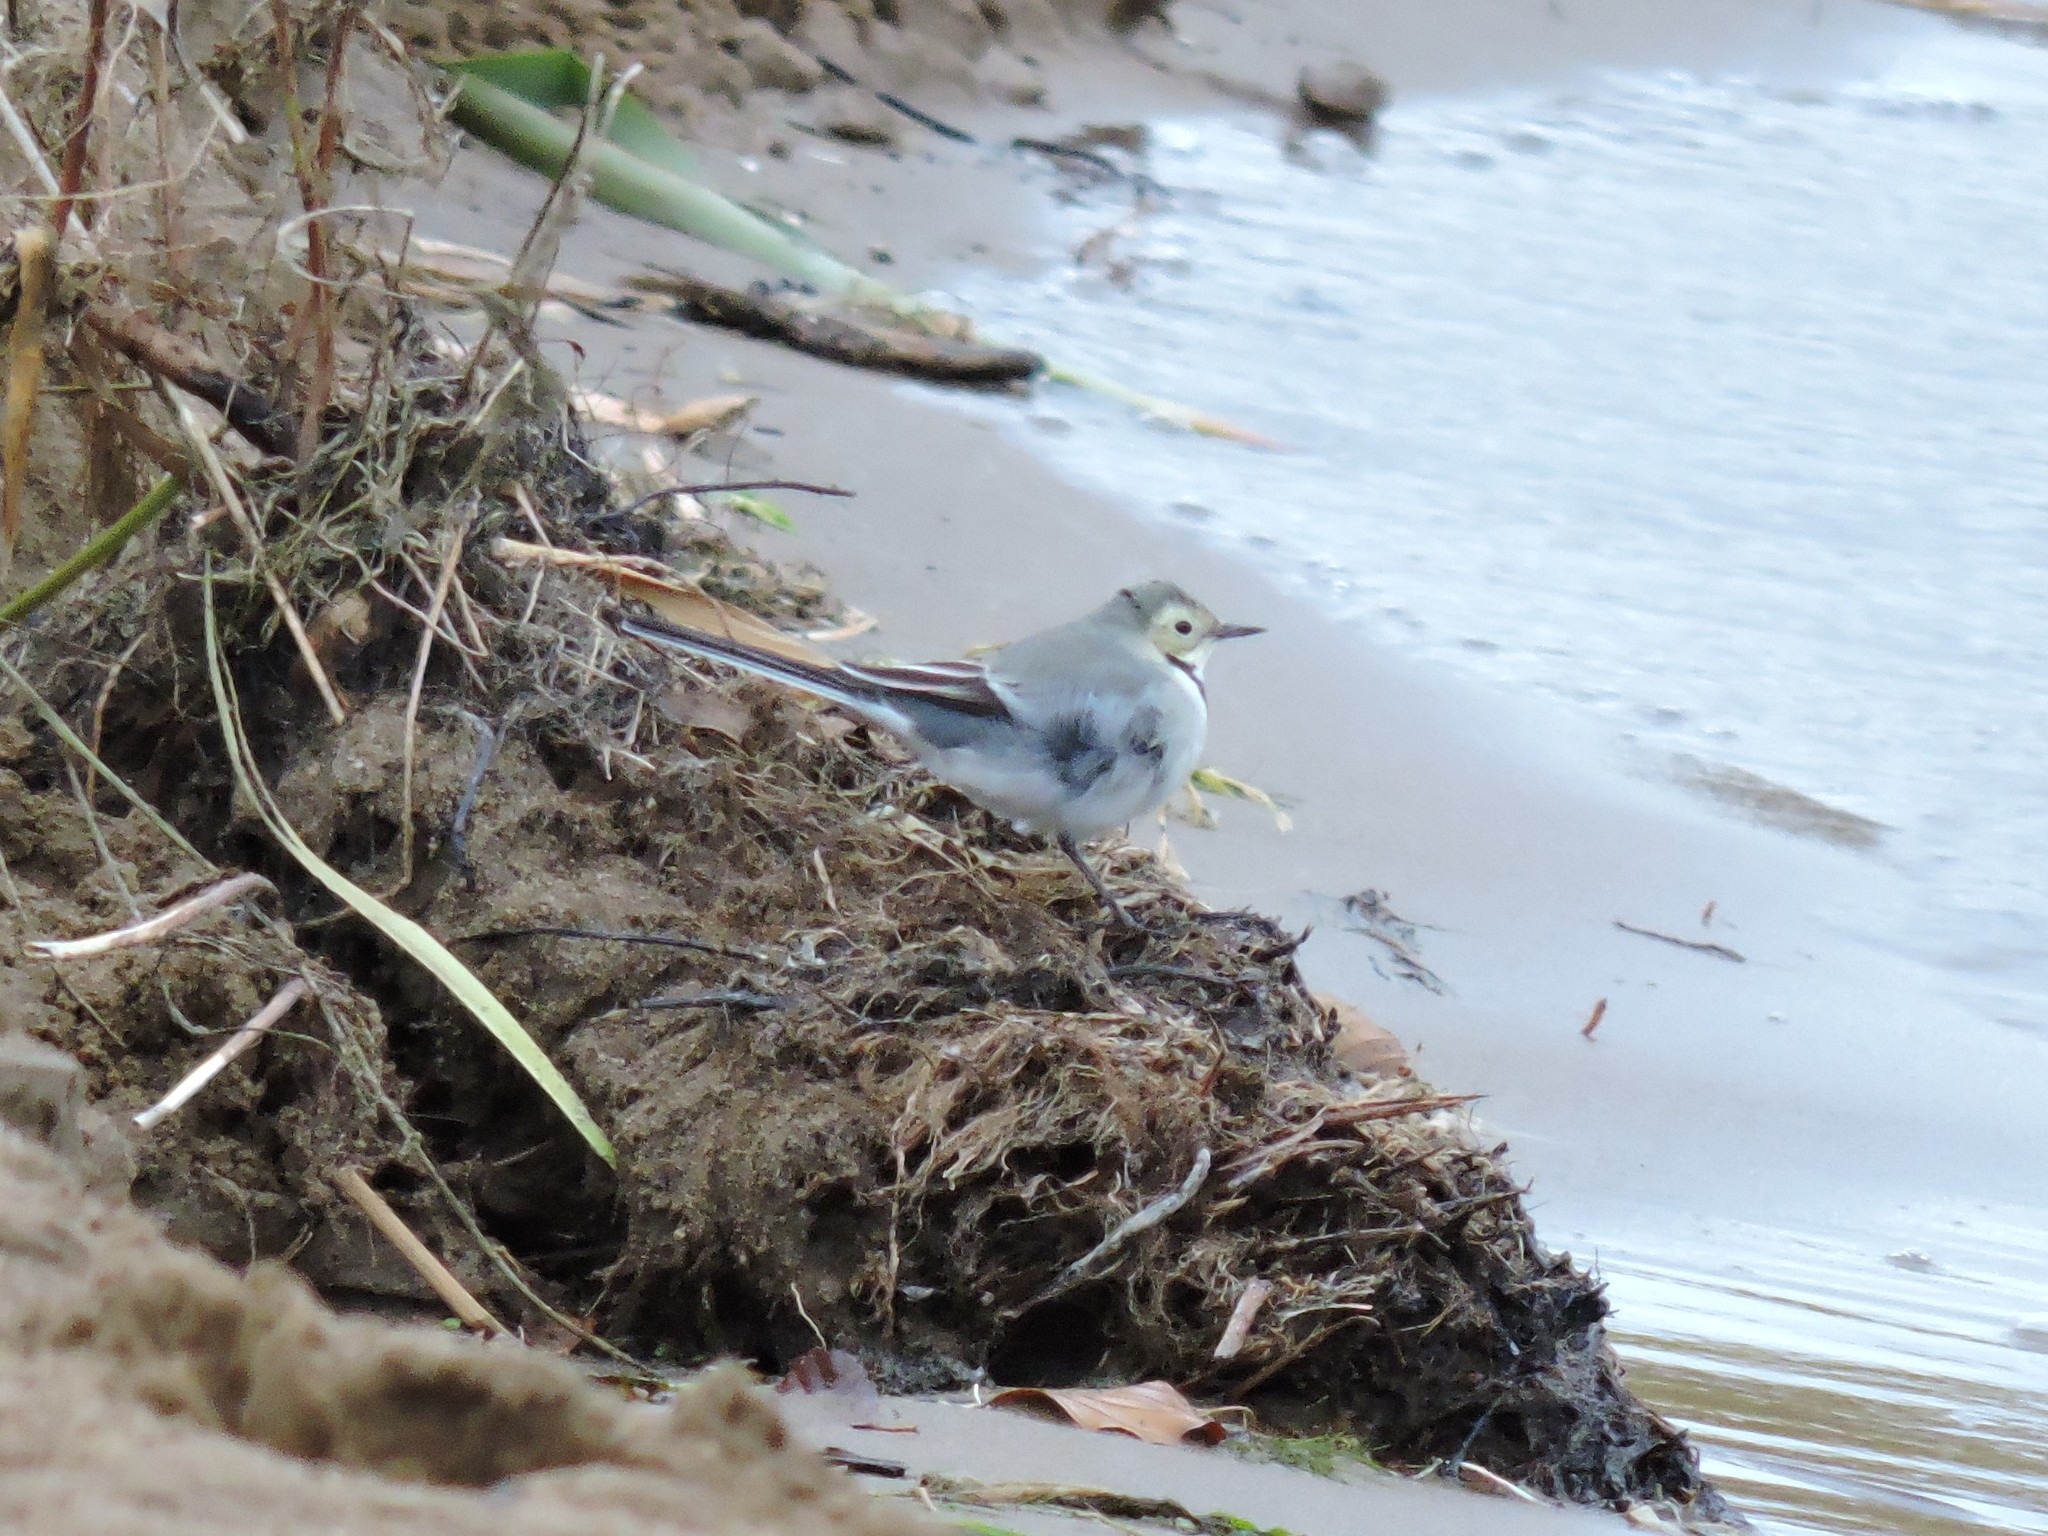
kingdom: Animalia
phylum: Chordata
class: Aves
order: Passeriformes
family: Motacillidae
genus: Motacilla
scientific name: Motacilla alba
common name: White wagtail
